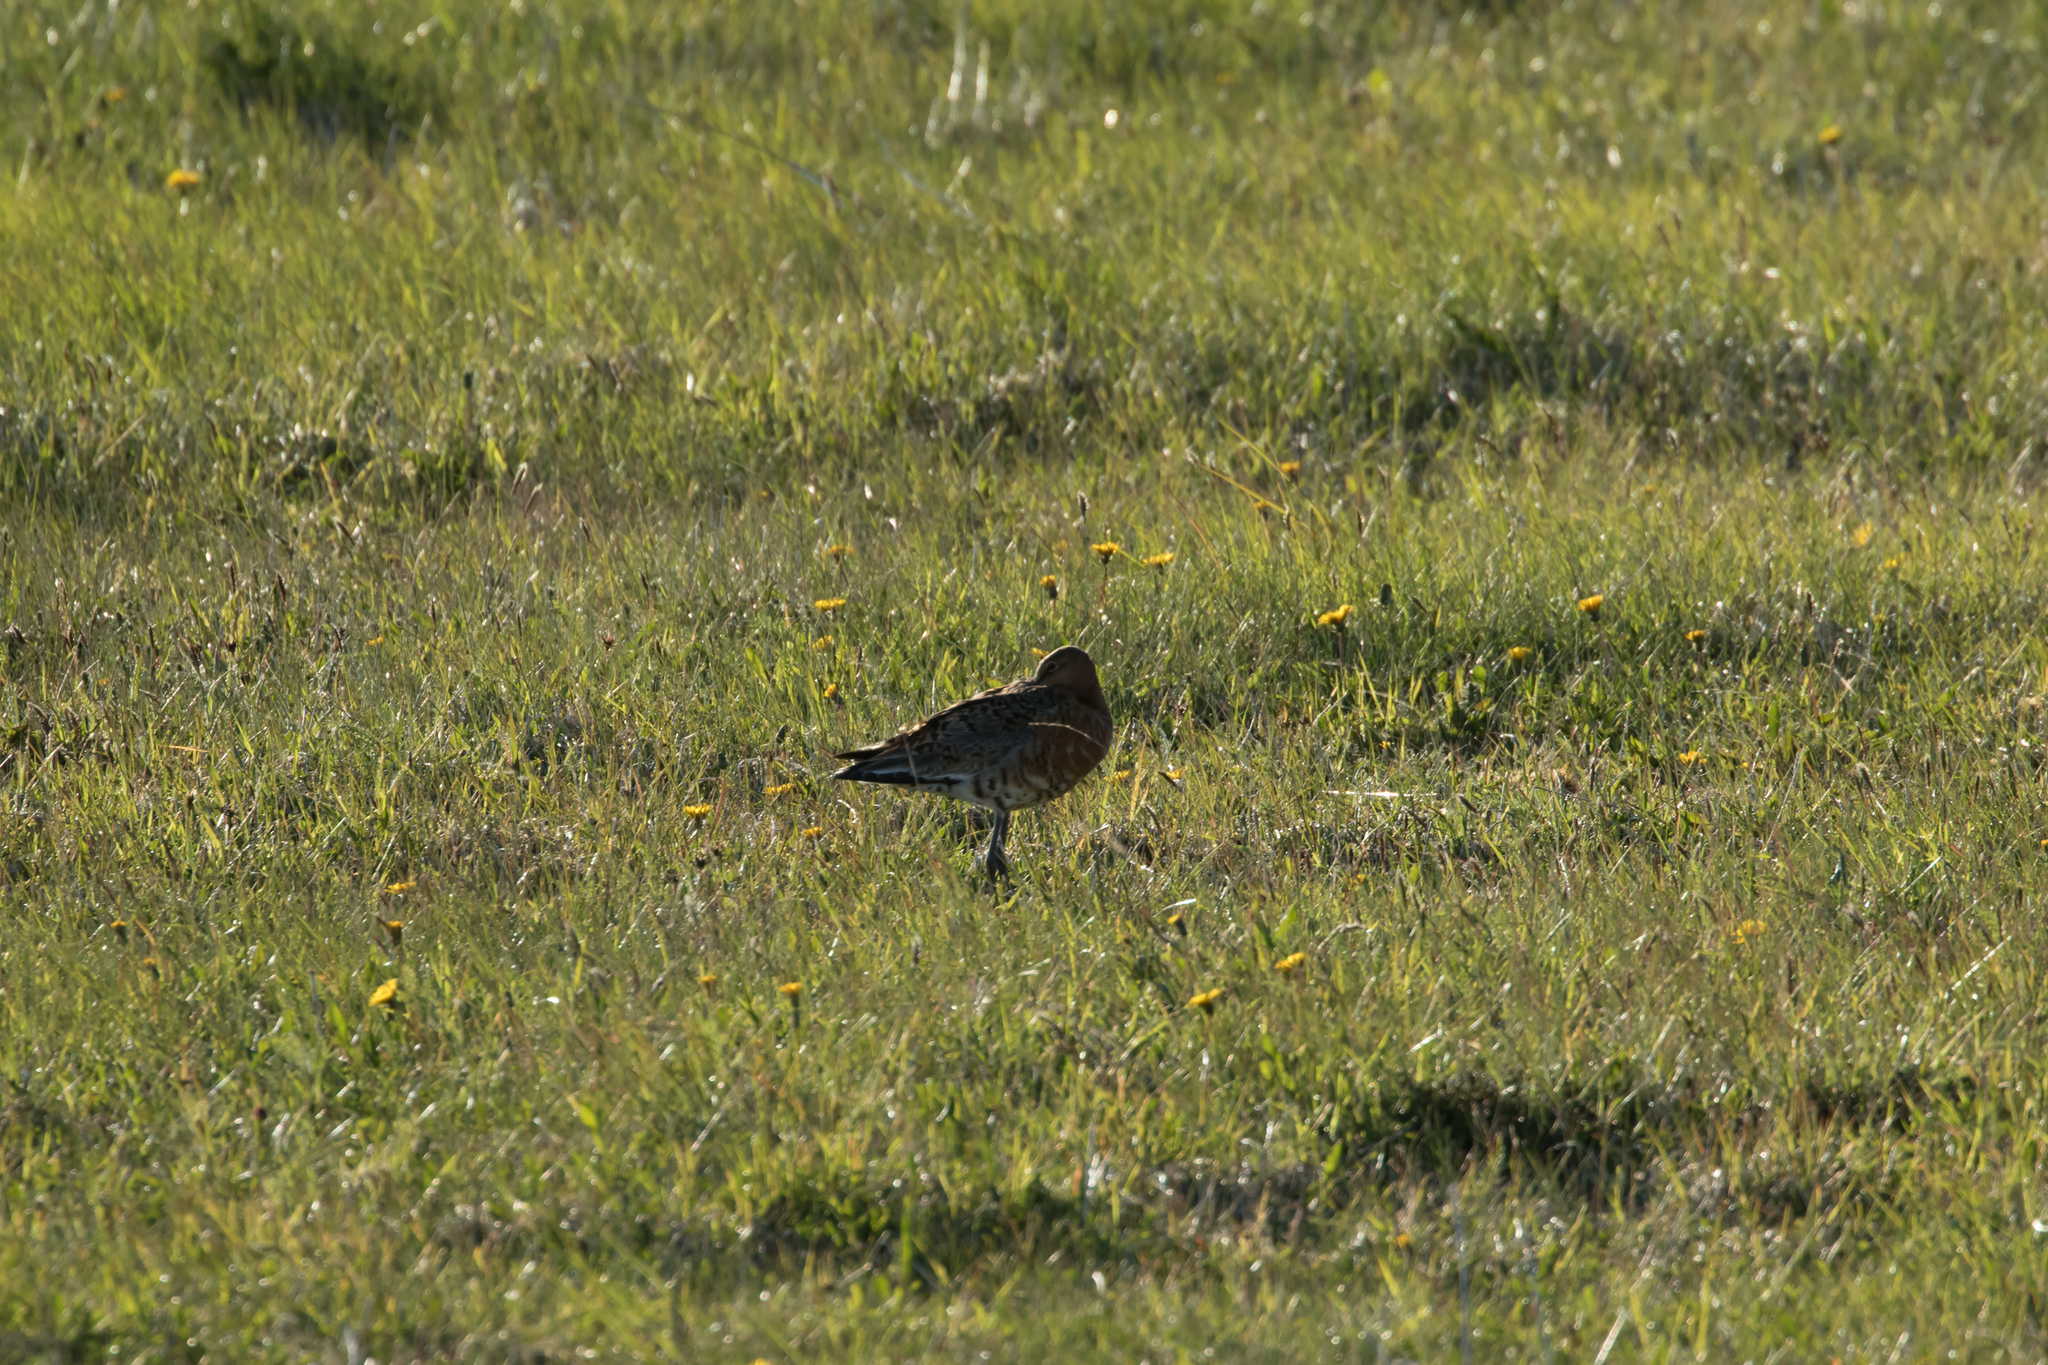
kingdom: Animalia
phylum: Chordata
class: Aves
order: Charadriiformes
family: Scolopacidae
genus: Limosa
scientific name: Limosa limosa
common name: Black-tailed godwit
